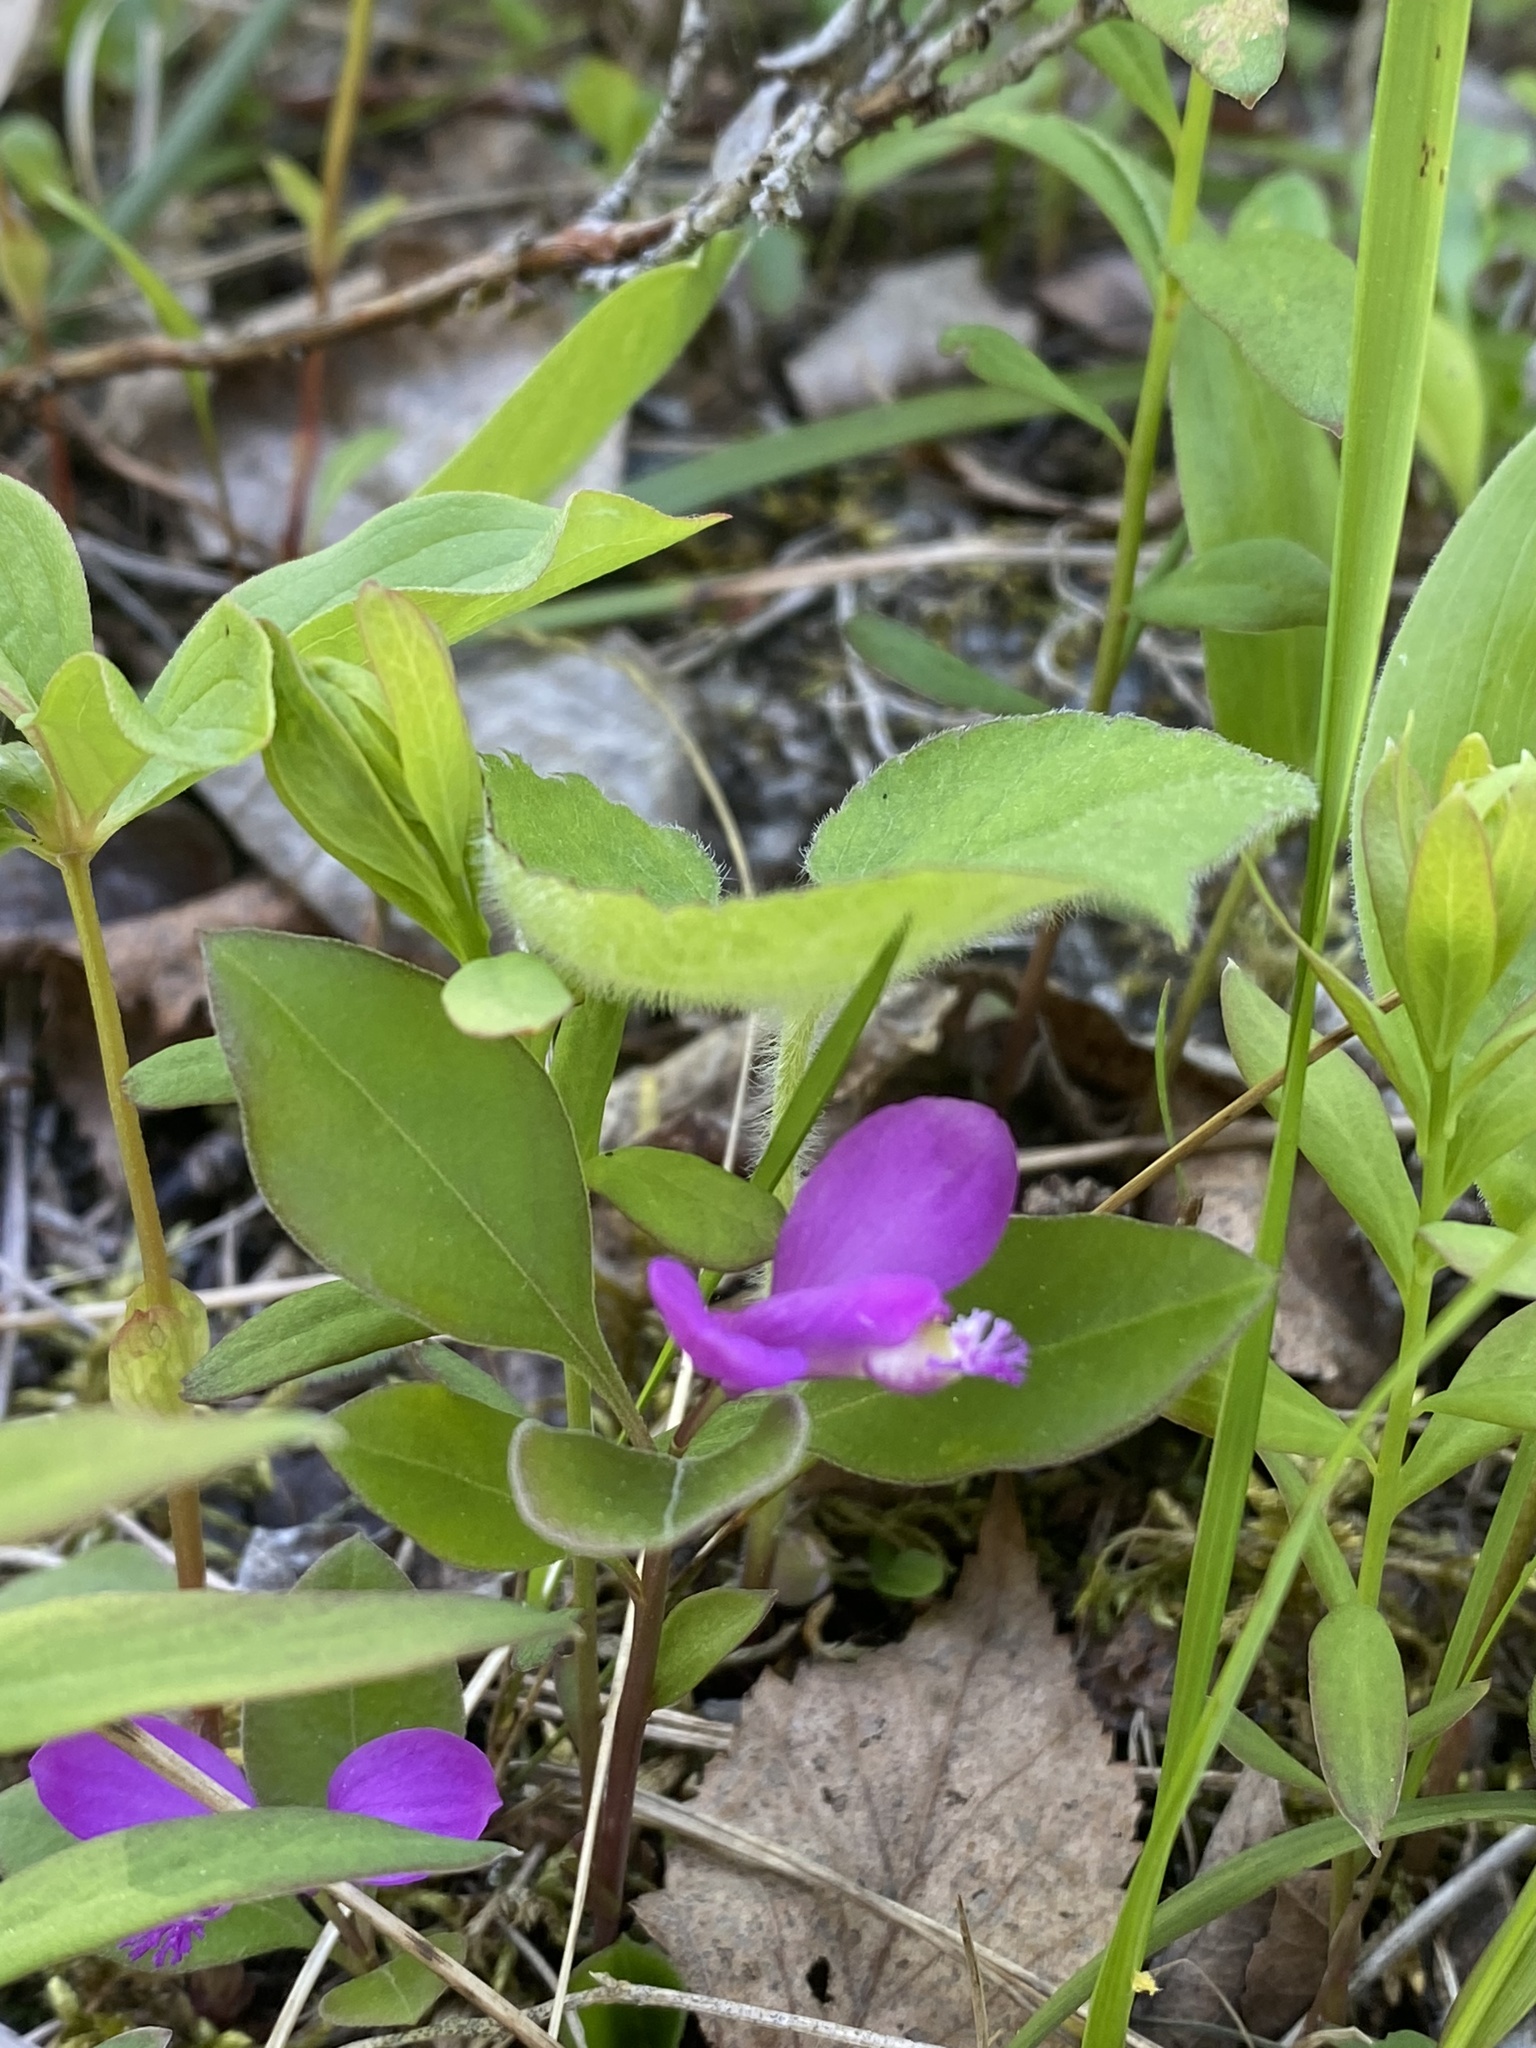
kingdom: Plantae
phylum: Tracheophyta
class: Magnoliopsida
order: Fabales
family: Polygalaceae
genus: Polygaloides
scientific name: Polygaloides paucifolia
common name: Bird-on-the-wing
